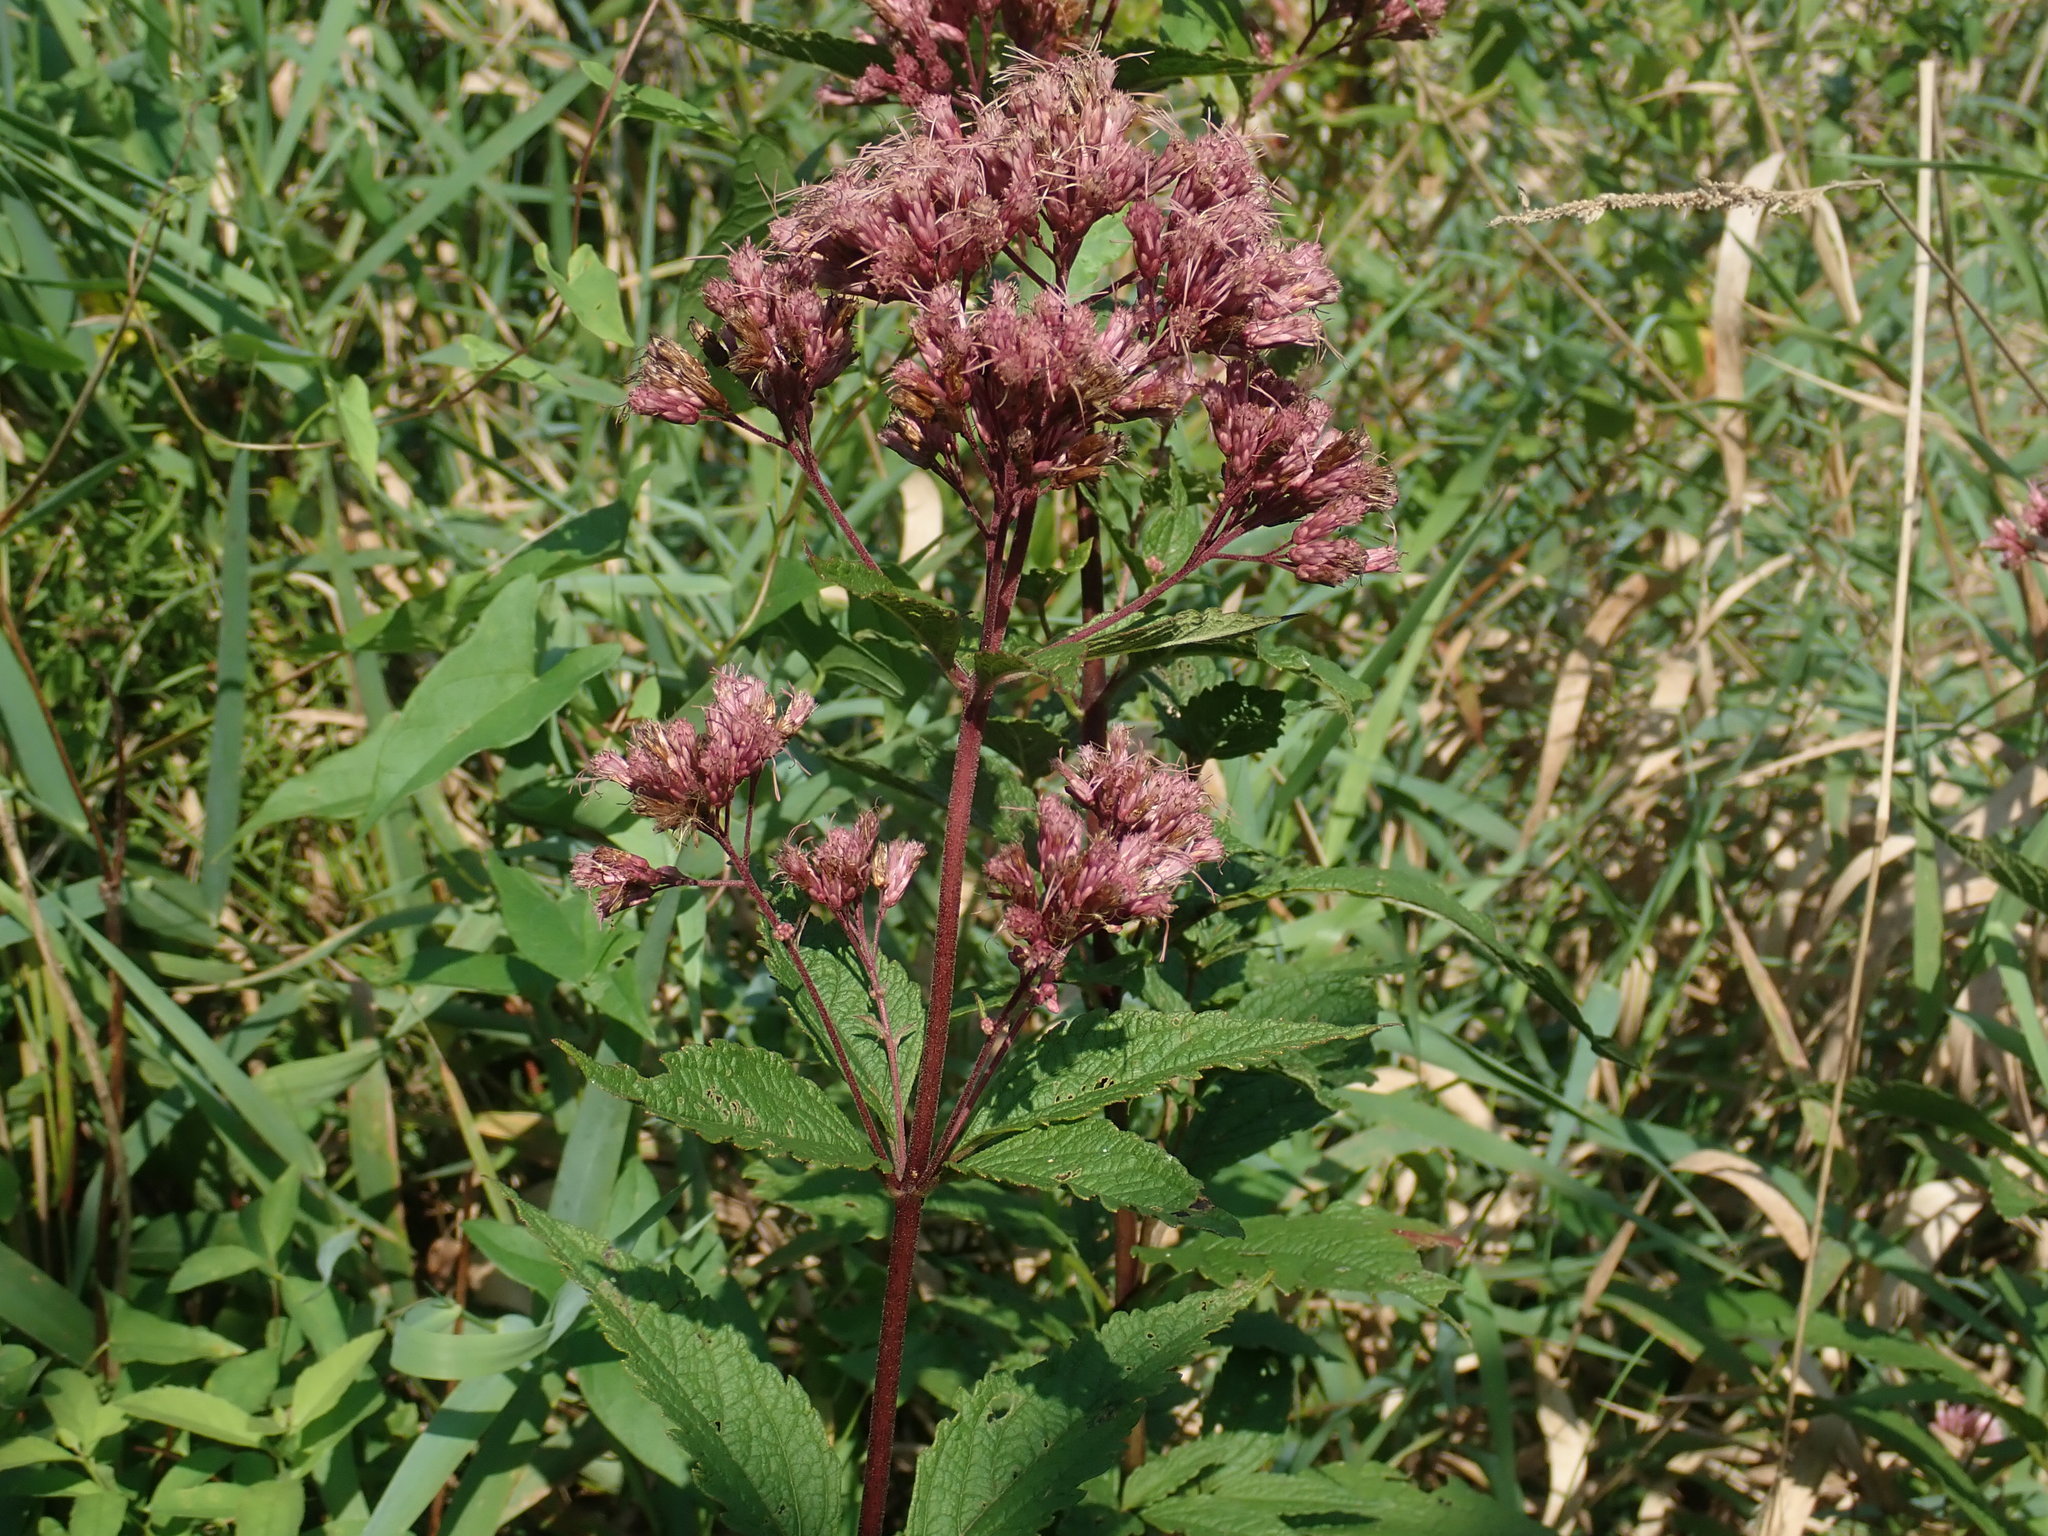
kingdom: Plantae
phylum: Tracheophyta
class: Magnoliopsida
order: Asterales
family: Asteraceae
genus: Eutrochium
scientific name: Eutrochium
